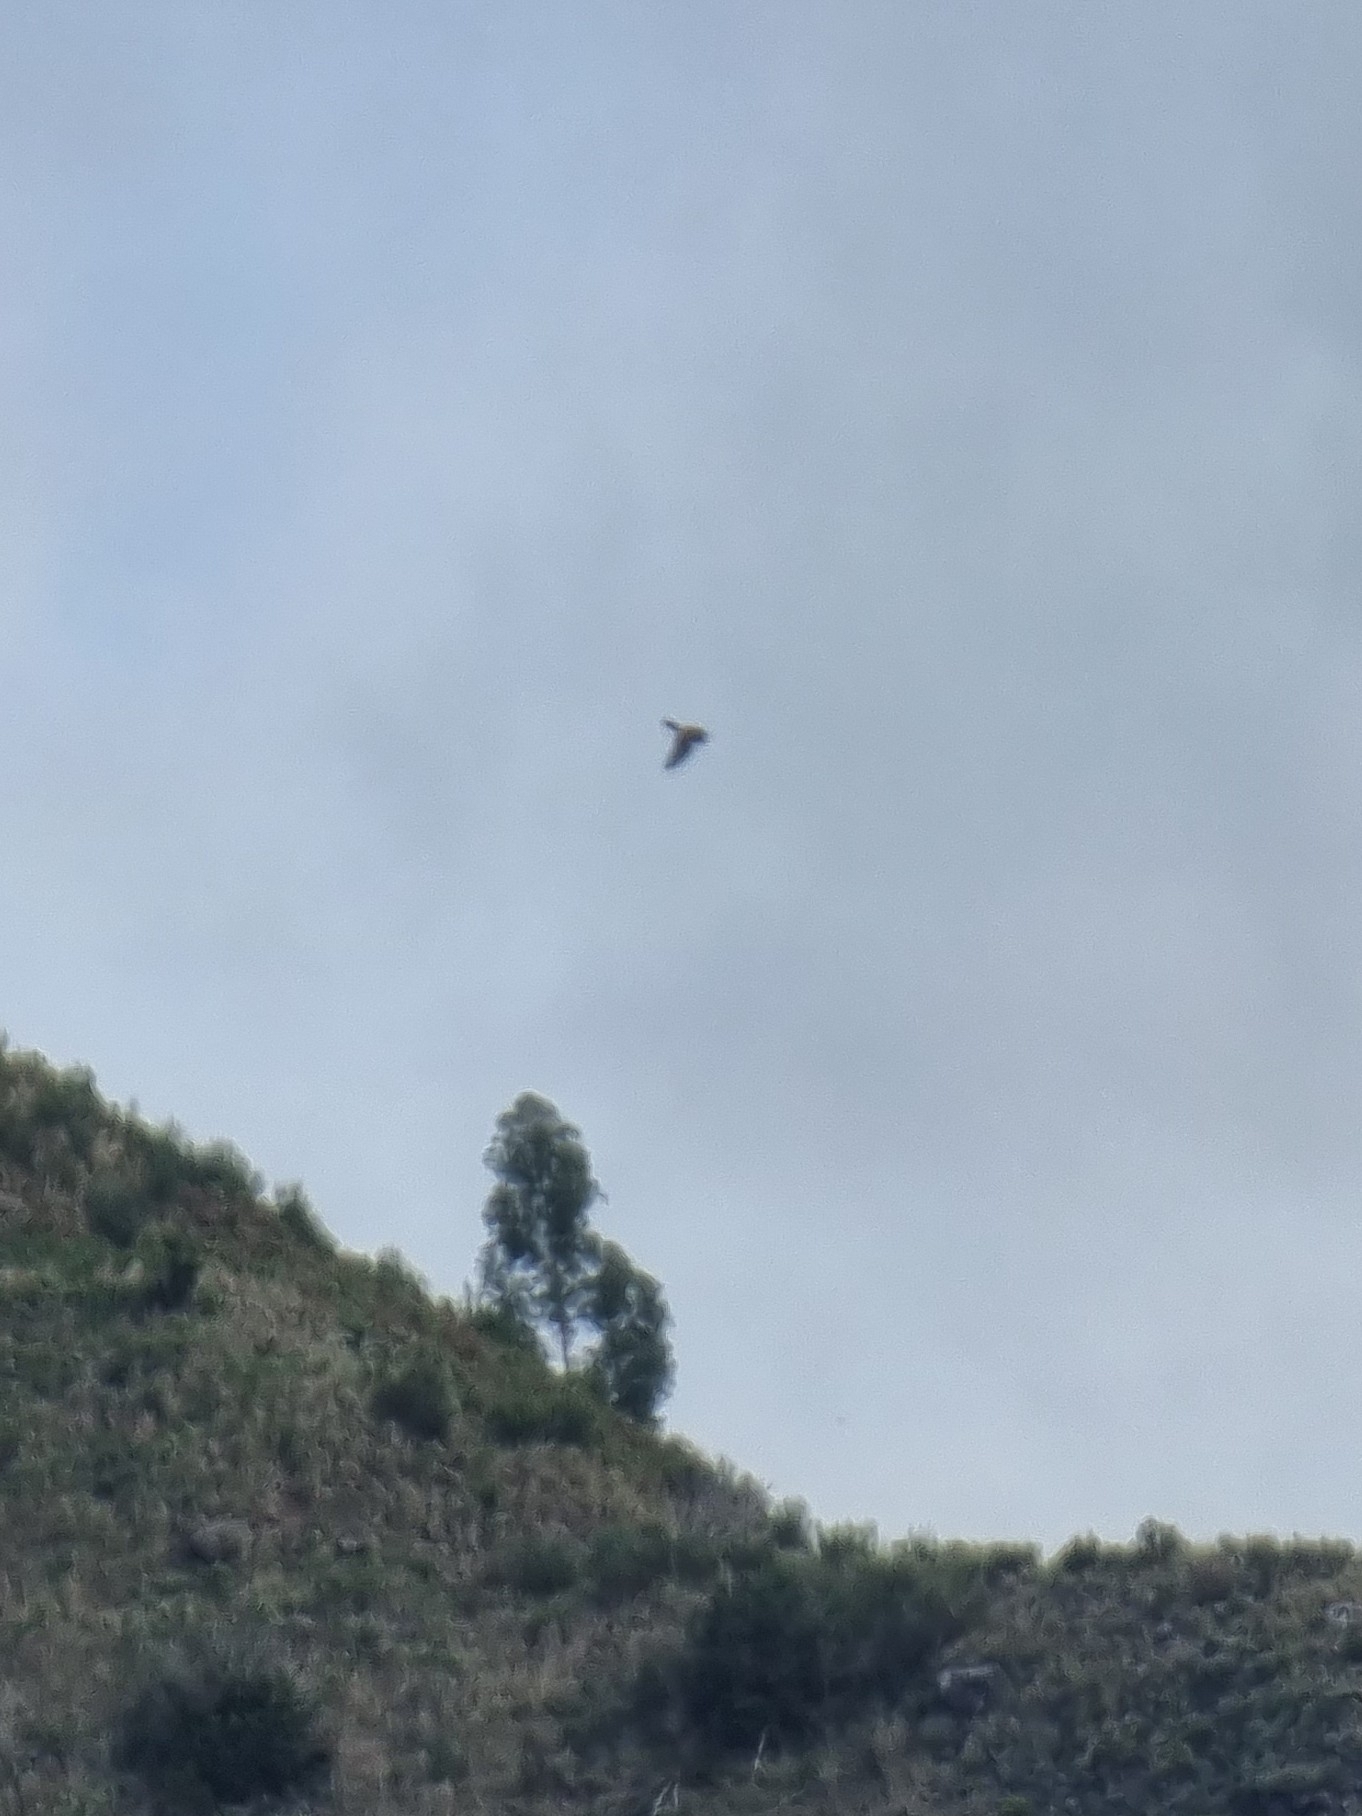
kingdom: Animalia
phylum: Chordata
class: Aves
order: Falconiformes
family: Falconidae
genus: Falco
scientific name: Falco tinnunculus
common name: Common kestrel
